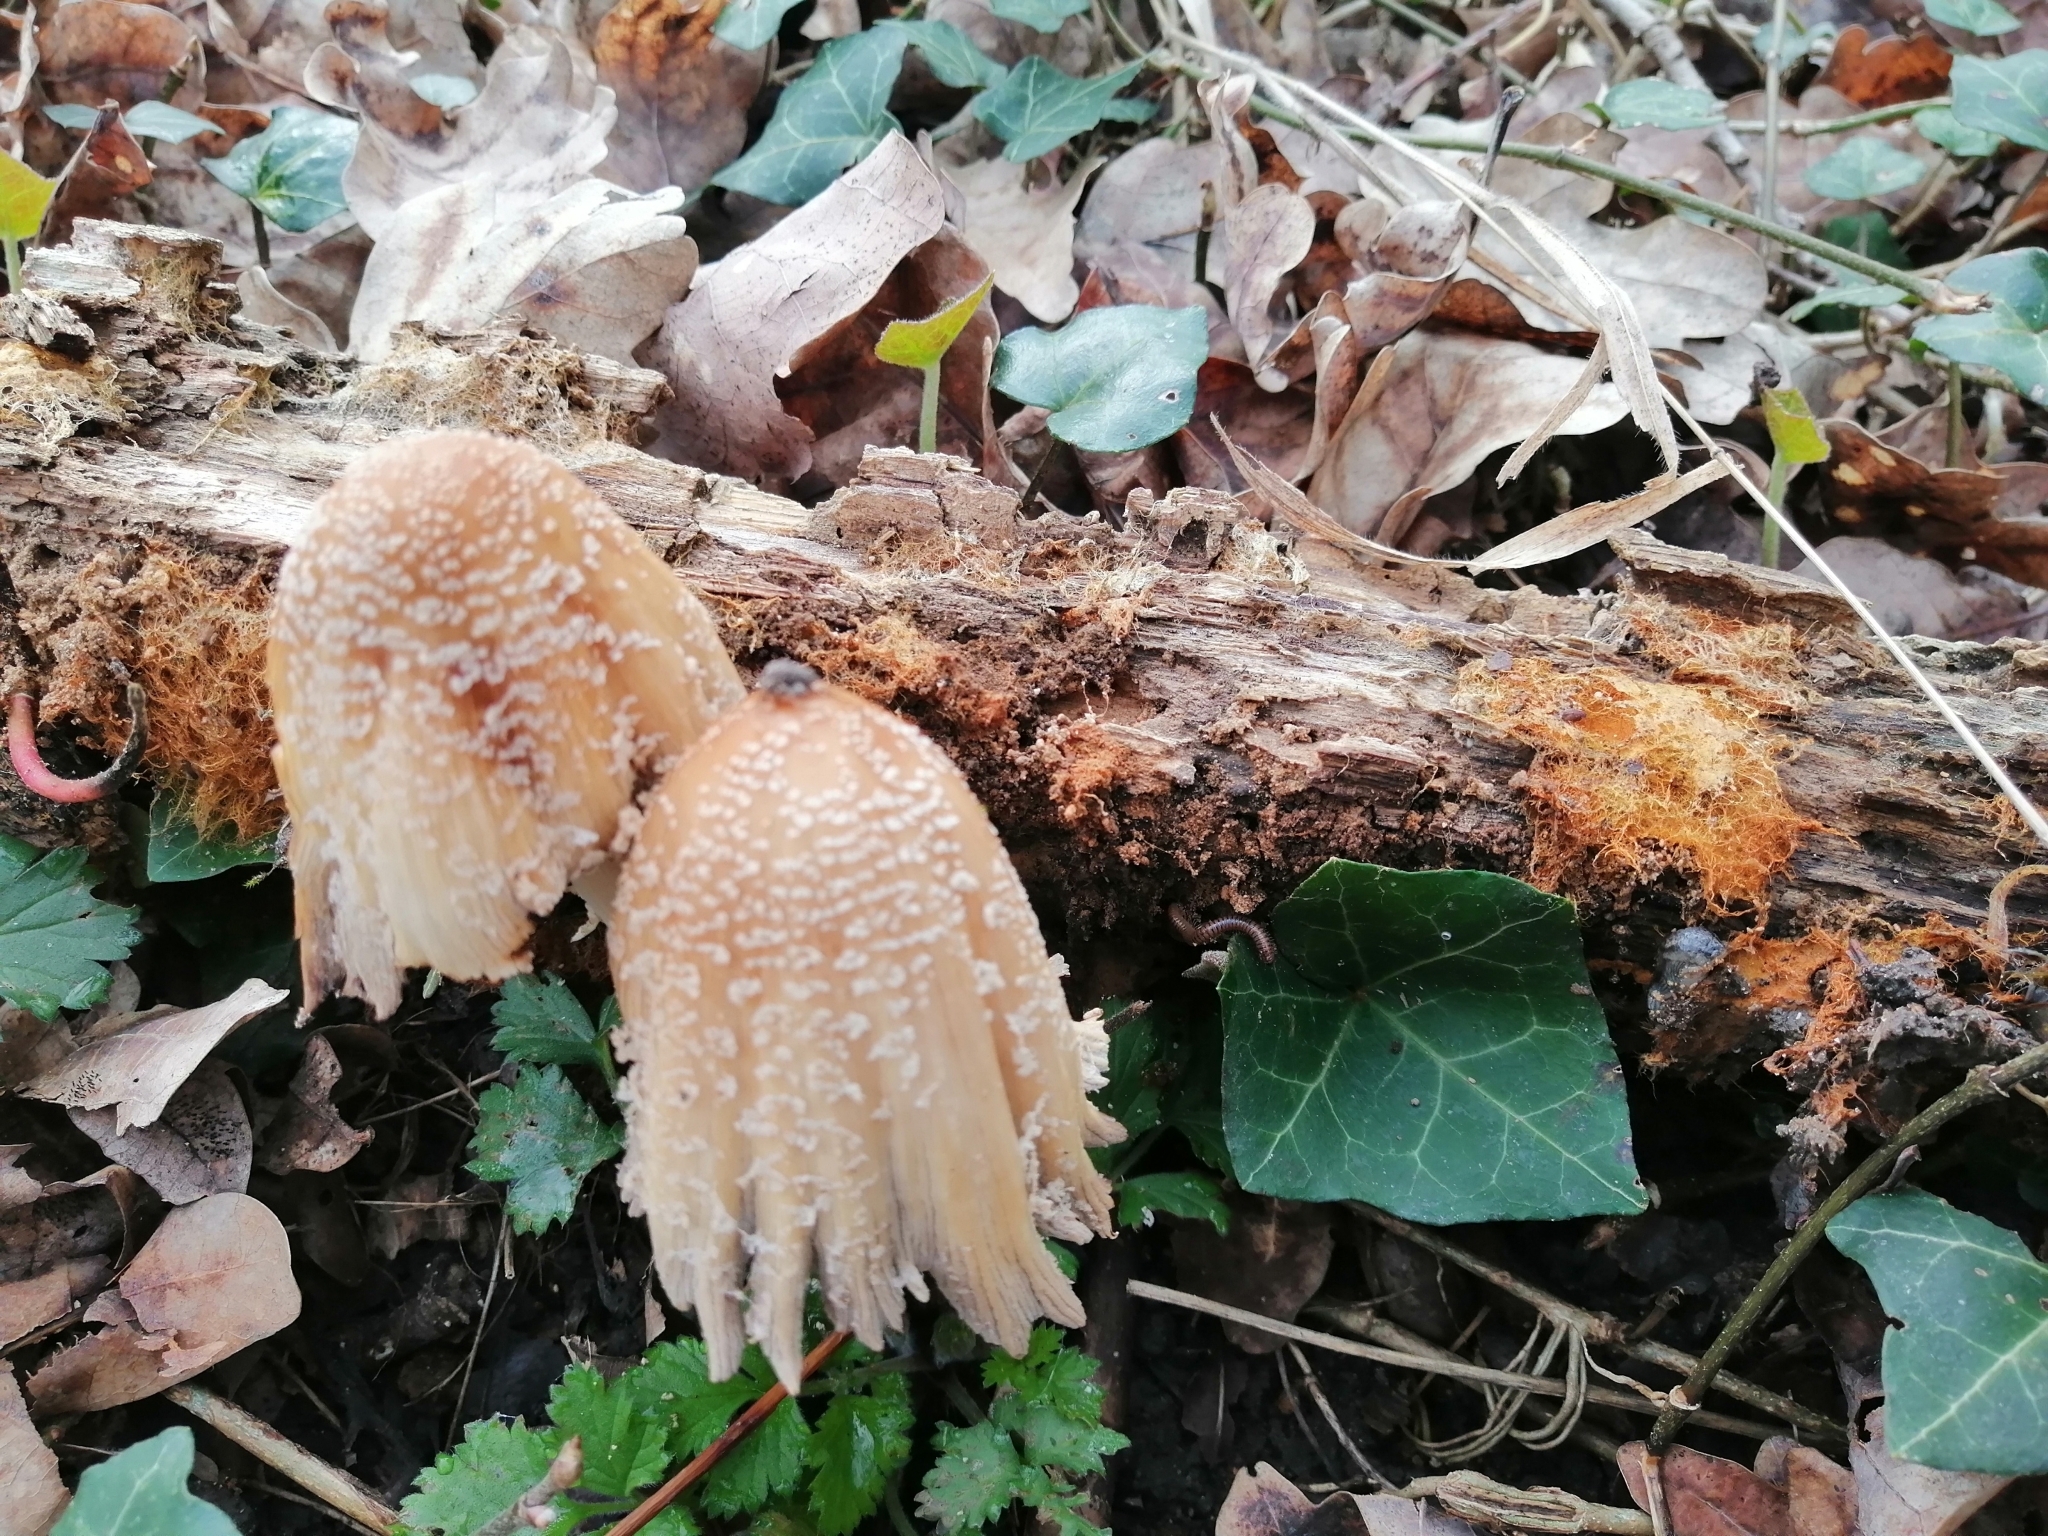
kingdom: Fungi
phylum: Basidiomycota
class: Agaricomycetes
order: Agaricales
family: Psathyrellaceae
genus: Coprinellus
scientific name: Coprinellus domesticus
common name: Firerug inkcap
